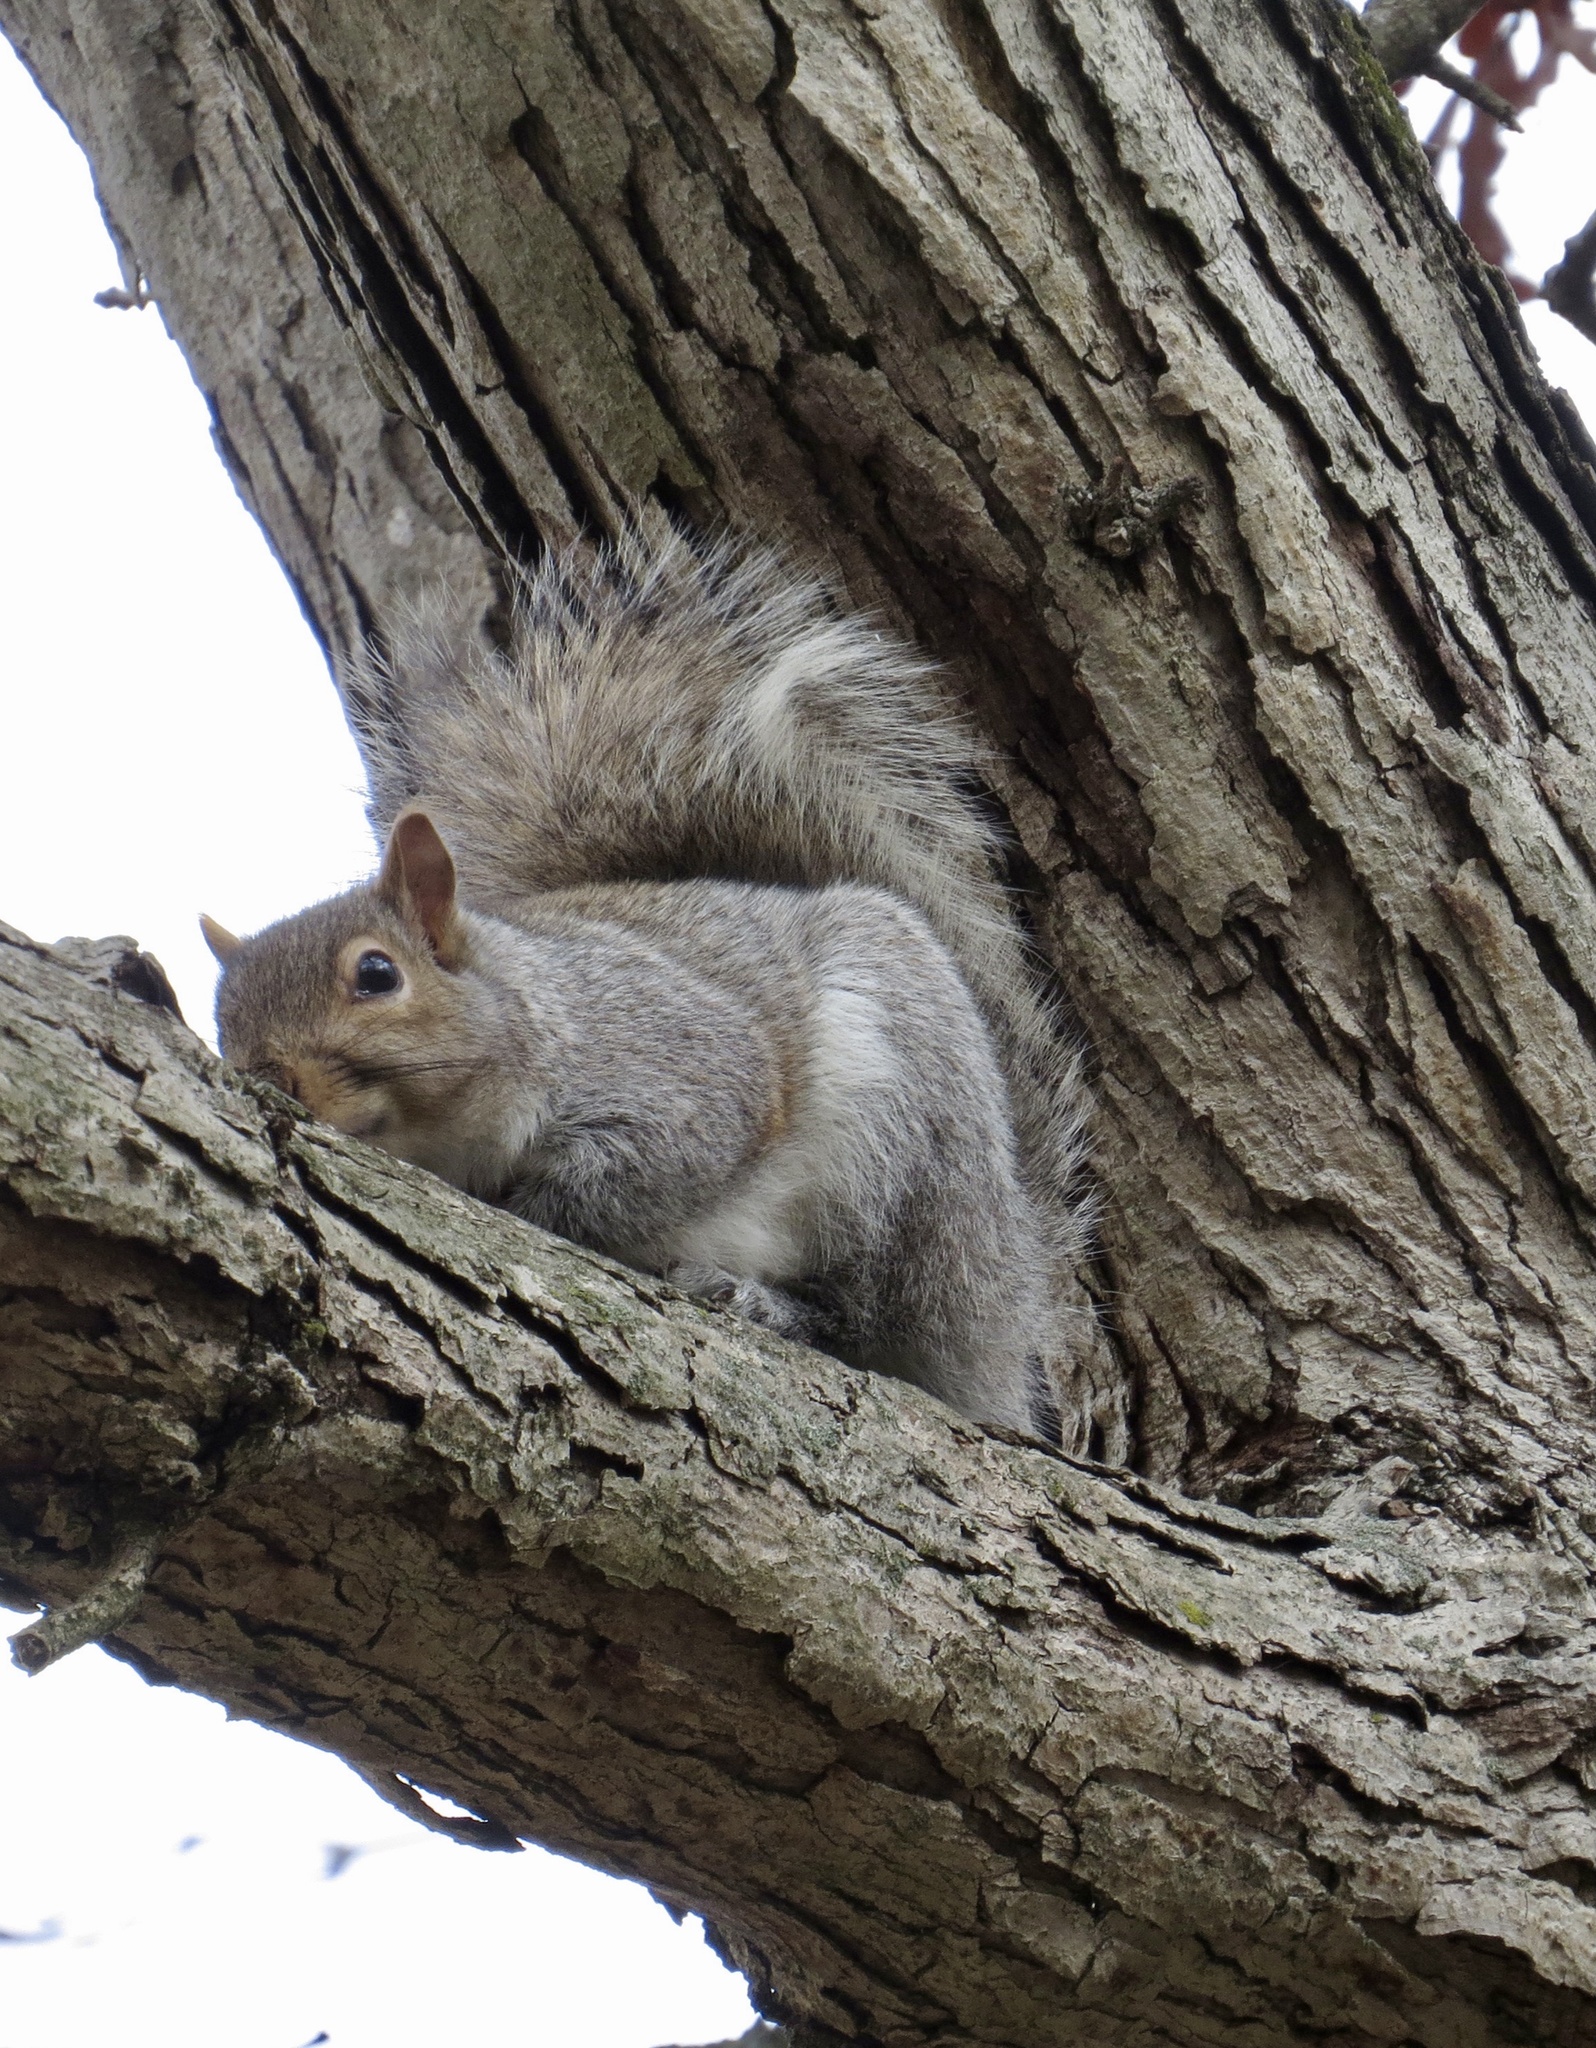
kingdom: Animalia
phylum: Chordata
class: Mammalia
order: Rodentia
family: Sciuridae
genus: Sciurus
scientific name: Sciurus carolinensis
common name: Eastern gray squirrel
